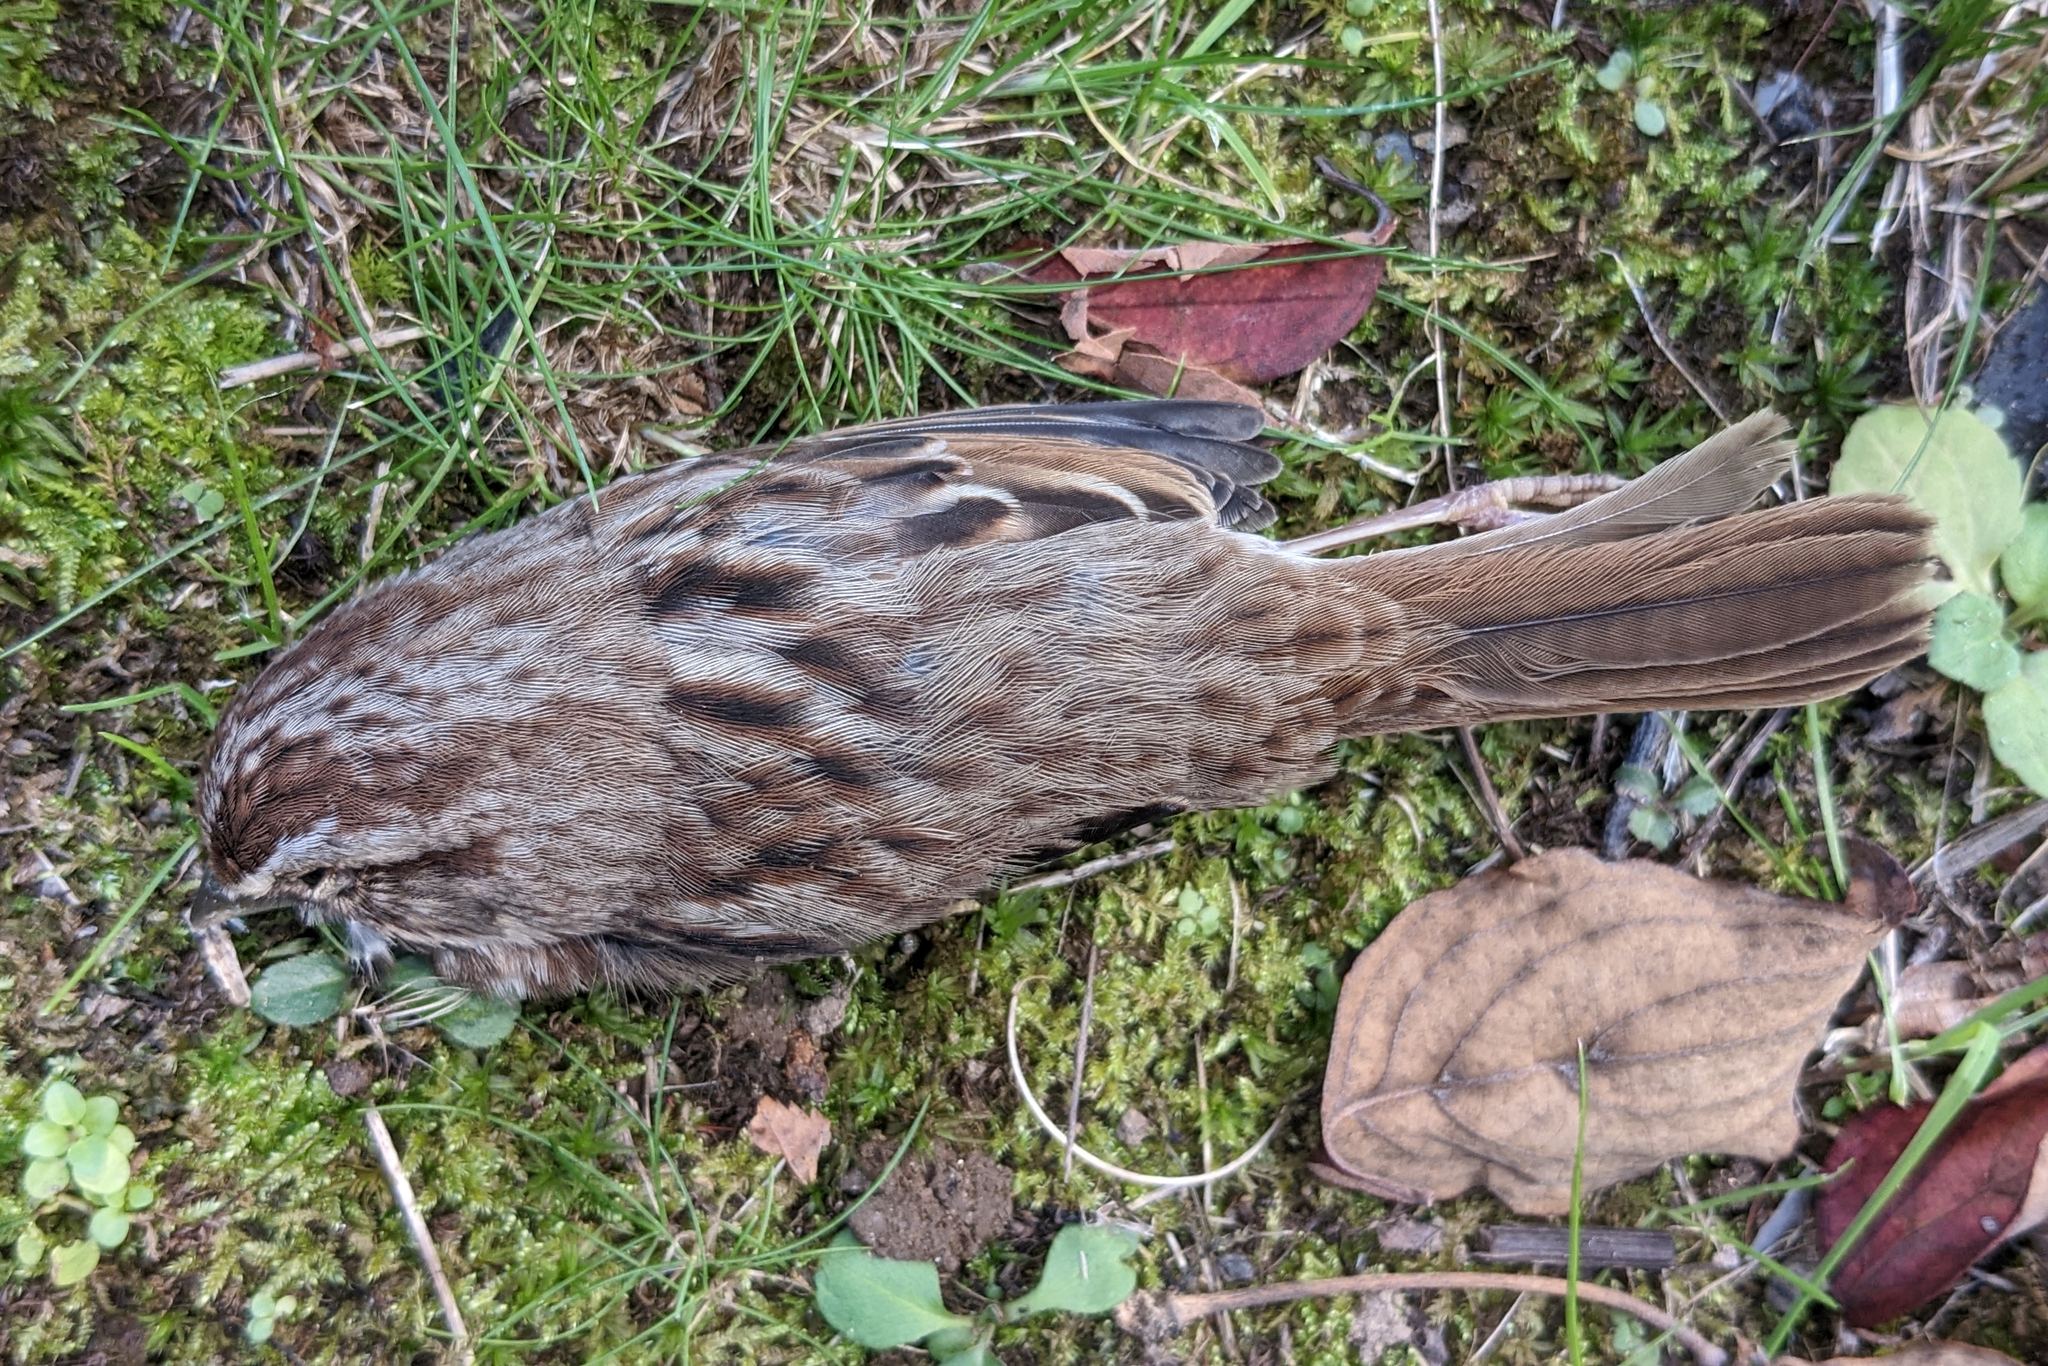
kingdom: Animalia
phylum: Chordata
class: Aves
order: Passeriformes
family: Passerellidae
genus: Melospiza
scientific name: Melospiza melodia
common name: Song sparrow
